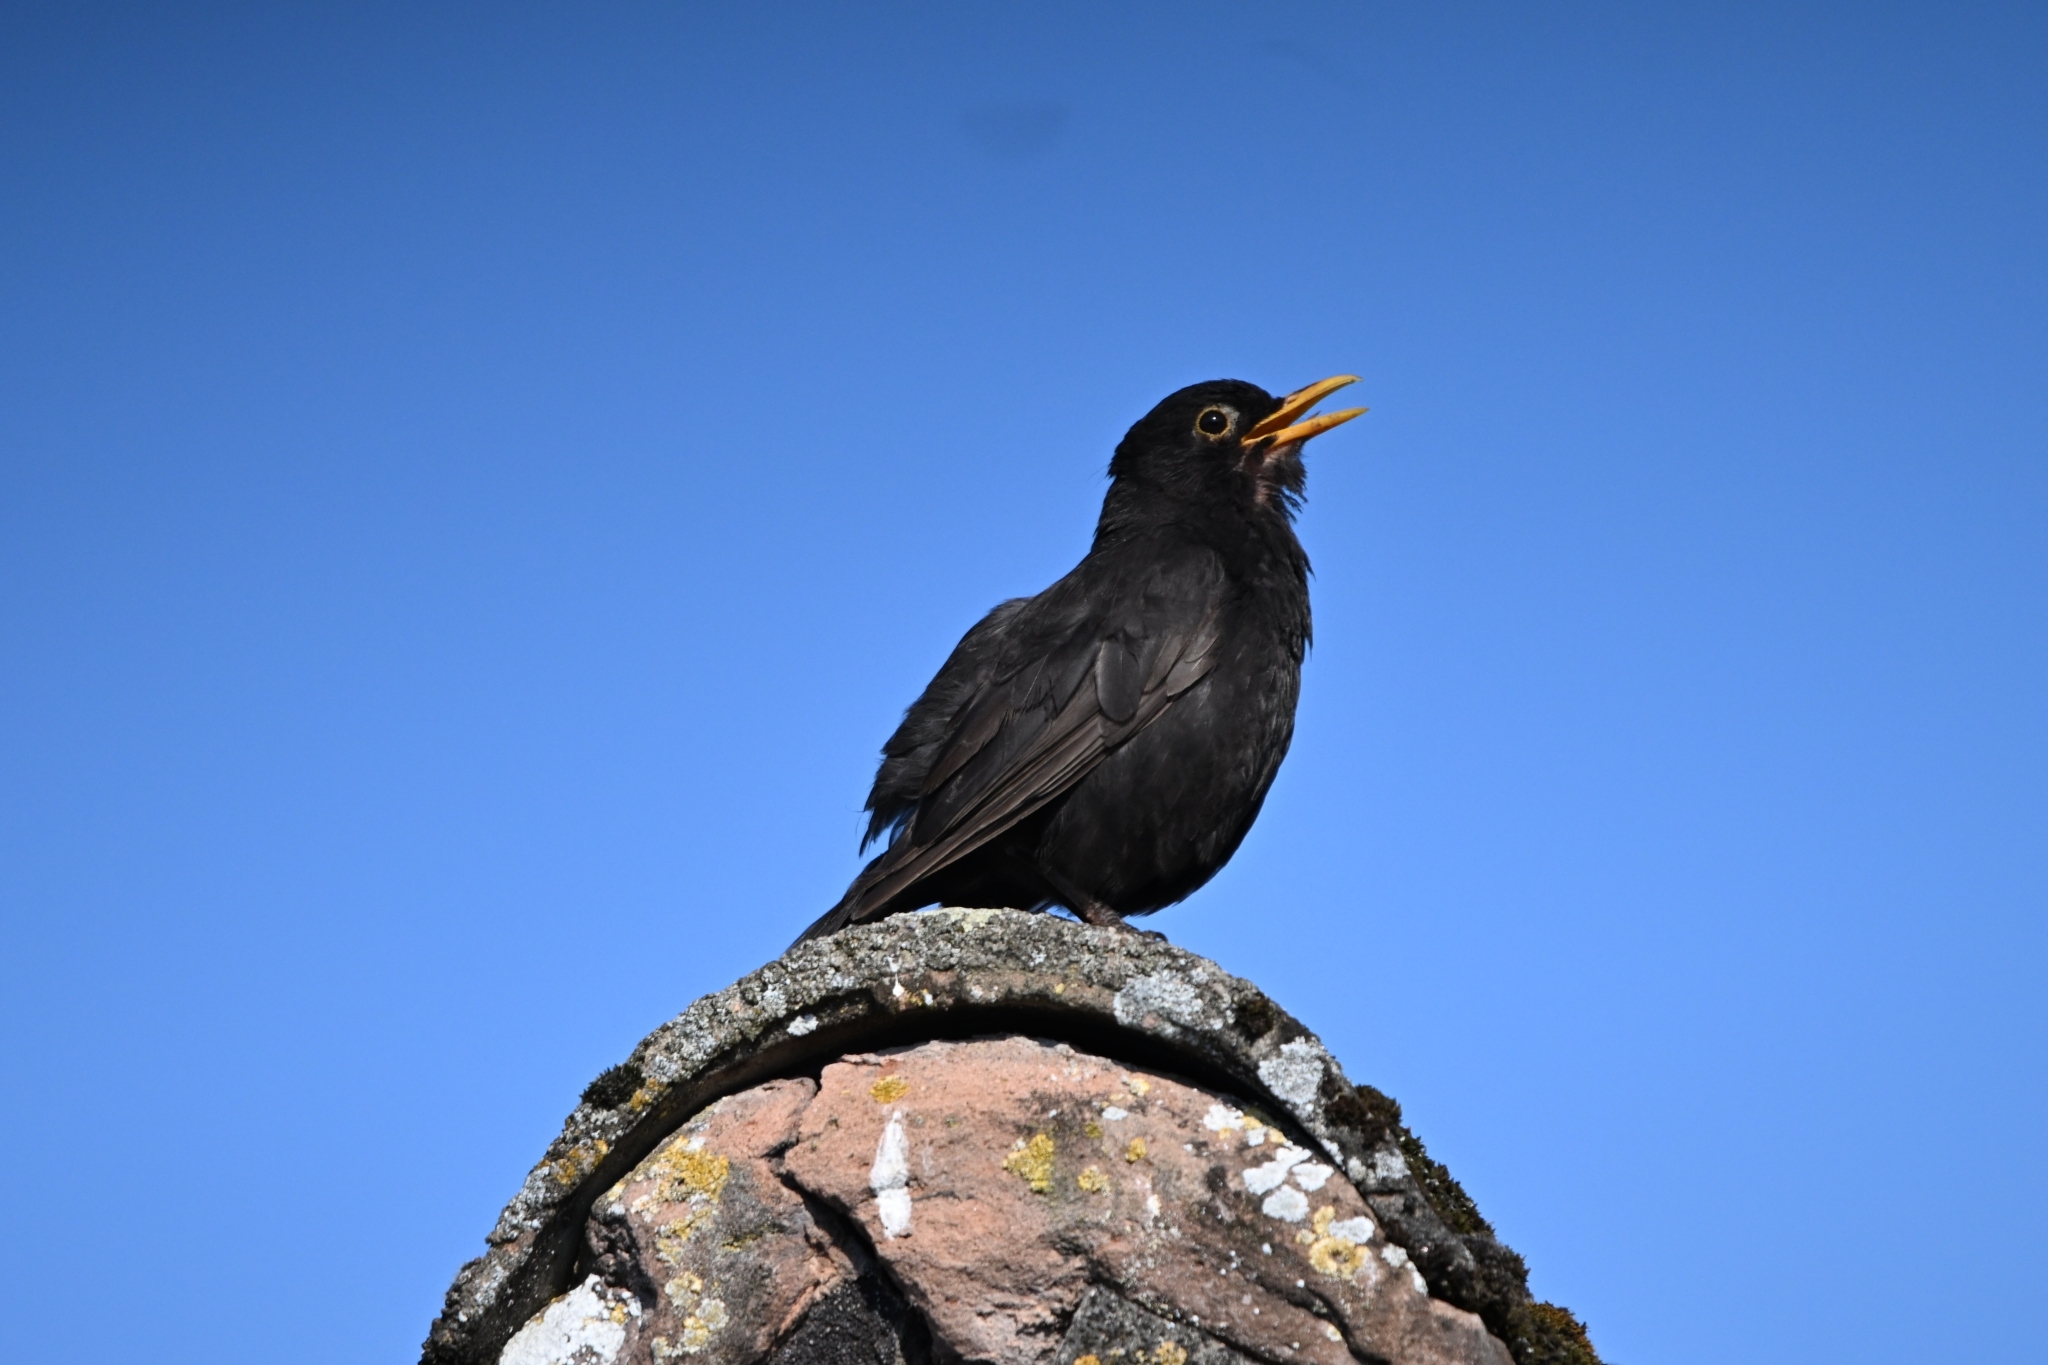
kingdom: Animalia
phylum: Chordata
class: Aves
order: Passeriformes
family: Turdidae
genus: Turdus
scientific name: Turdus merula
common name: Common blackbird
